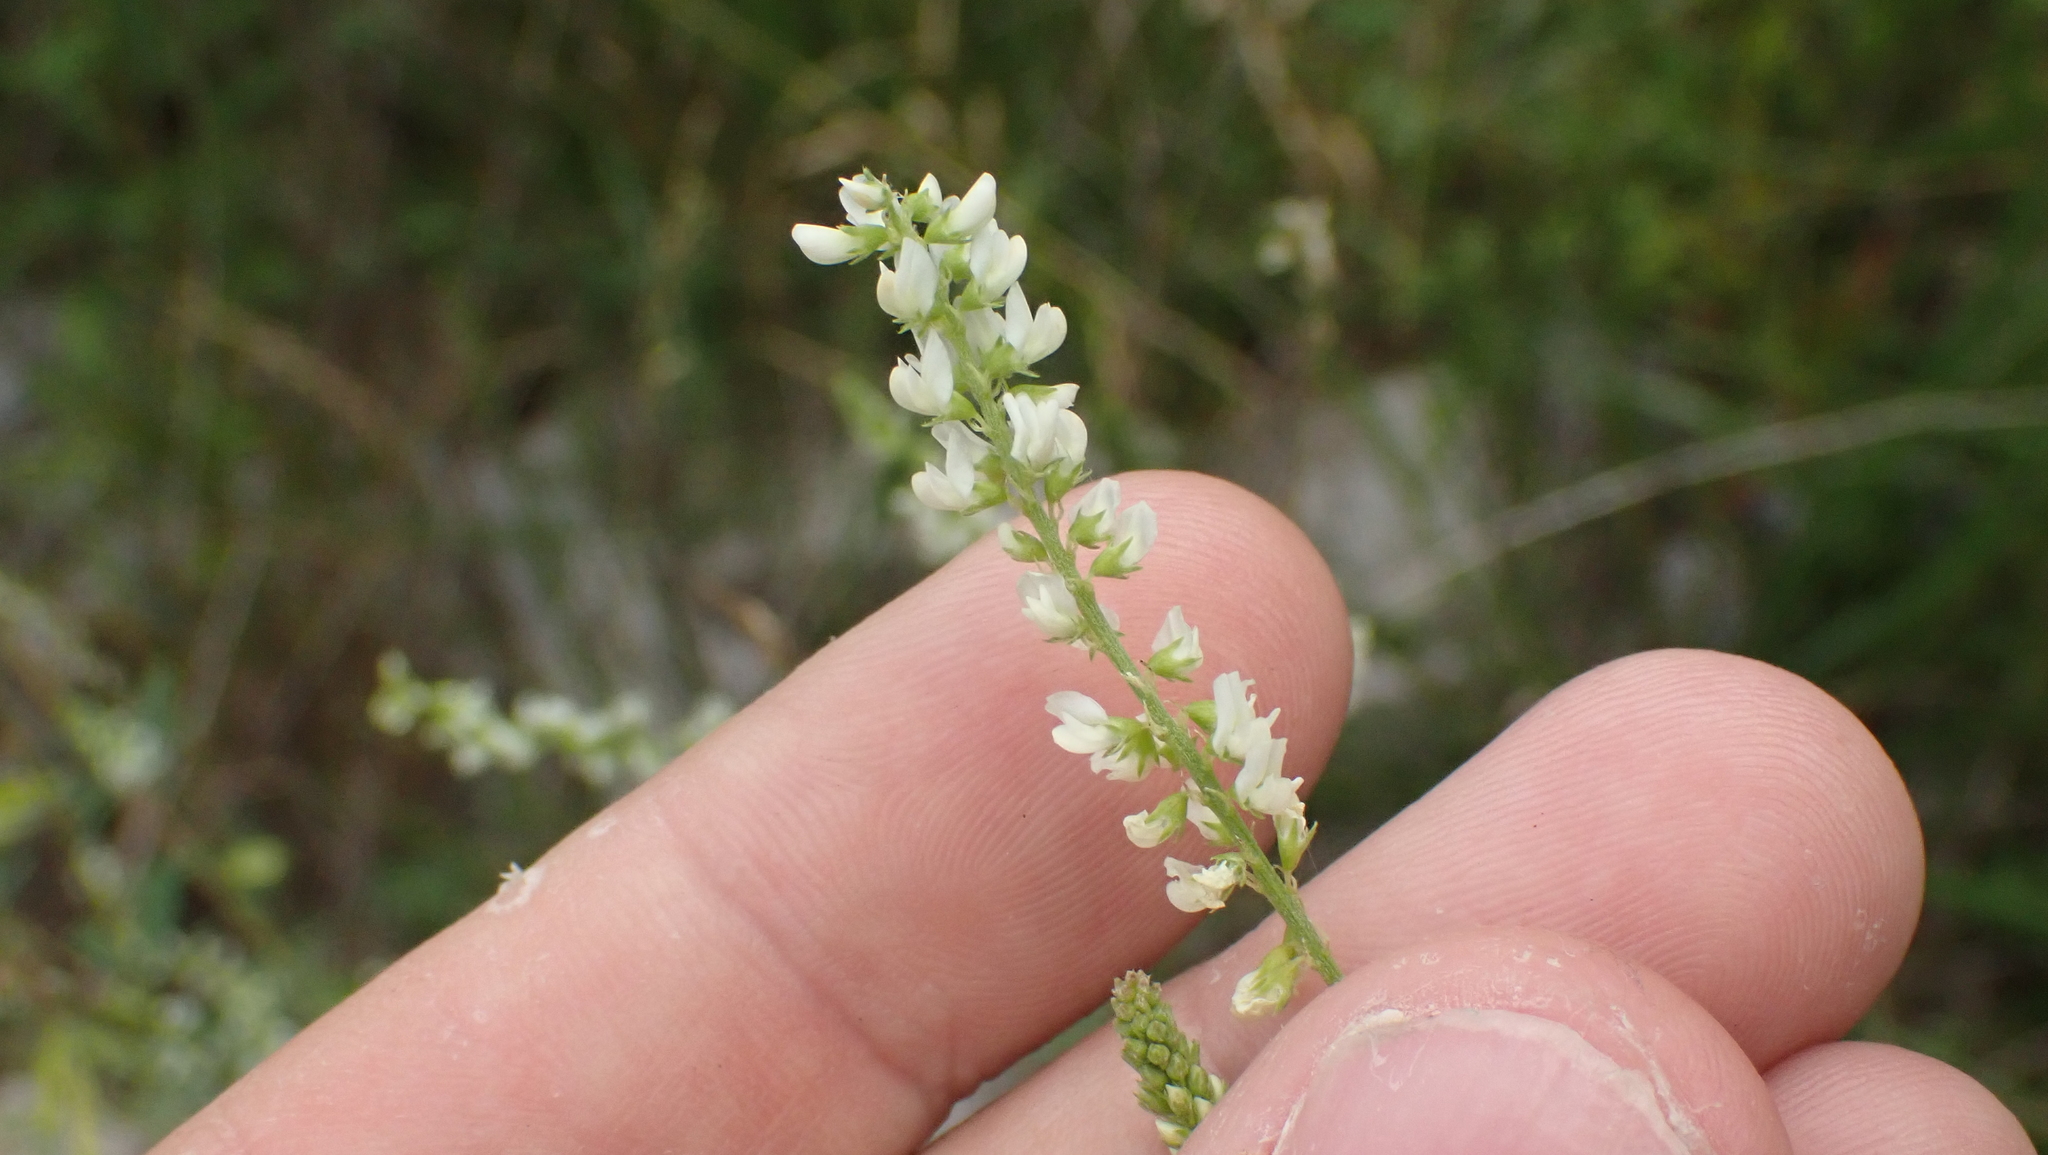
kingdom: Plantae
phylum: Tracheophyta
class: Magnoliopsida
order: Fabales
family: Fabaceae
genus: Melilotus
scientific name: Melilotus albus
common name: White melilot
